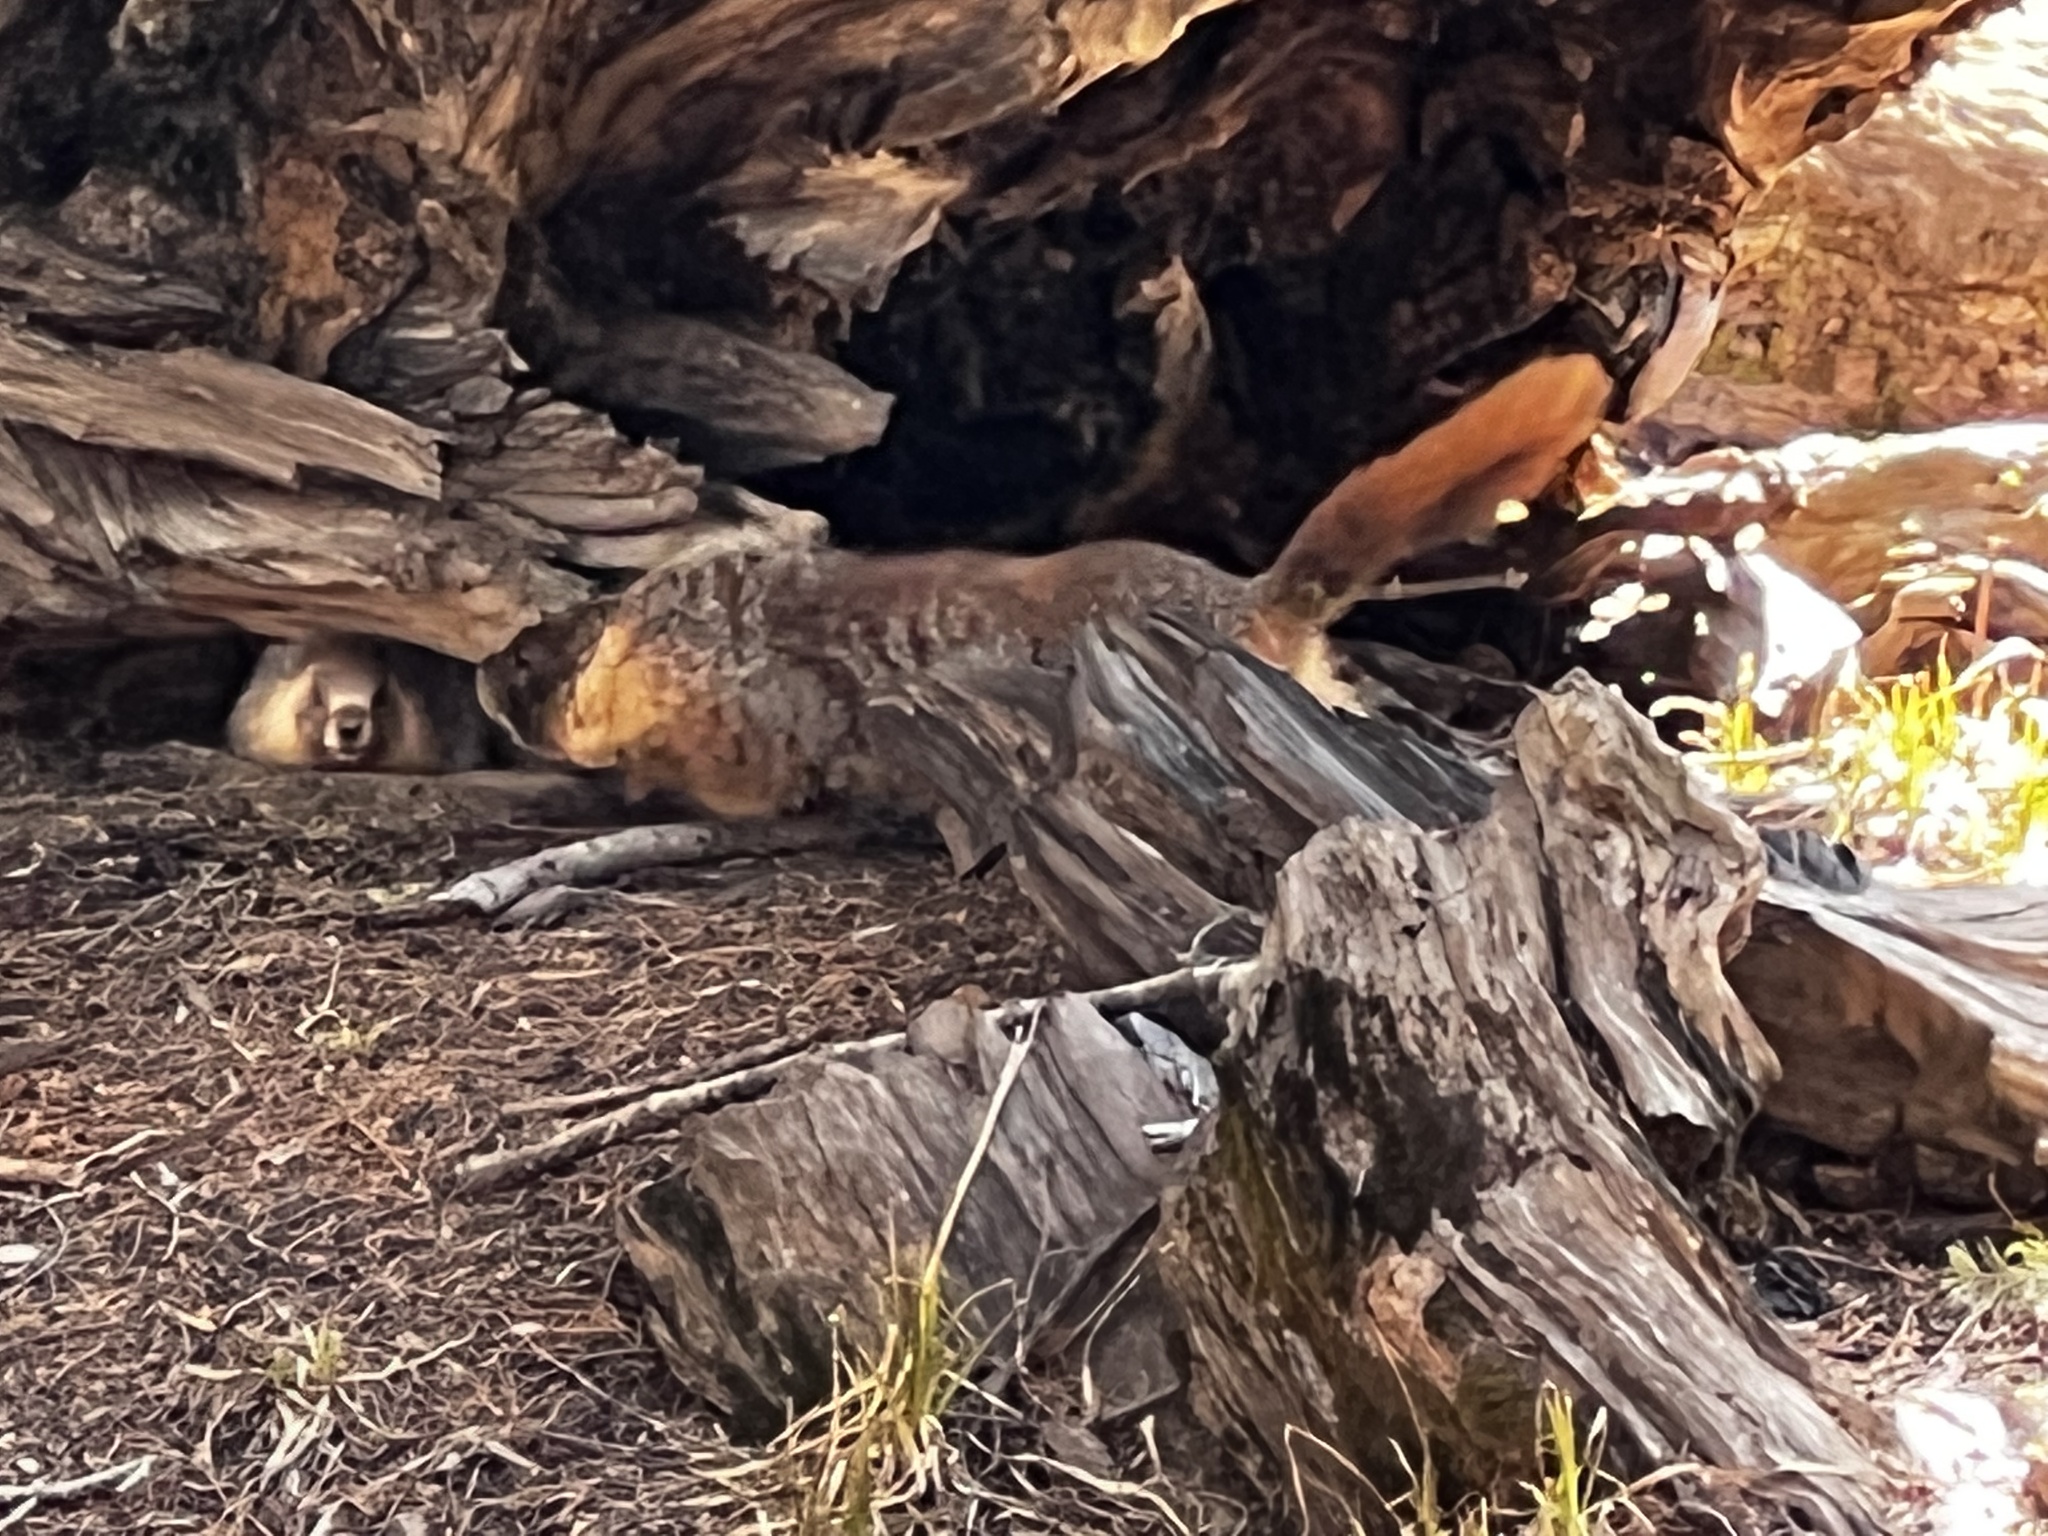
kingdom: Animalia
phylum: Chordata
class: Mammalia
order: Rodentia
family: Sciuridae
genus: Marmota
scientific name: Marmota flaviventris
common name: Yellow-bellied marmot
